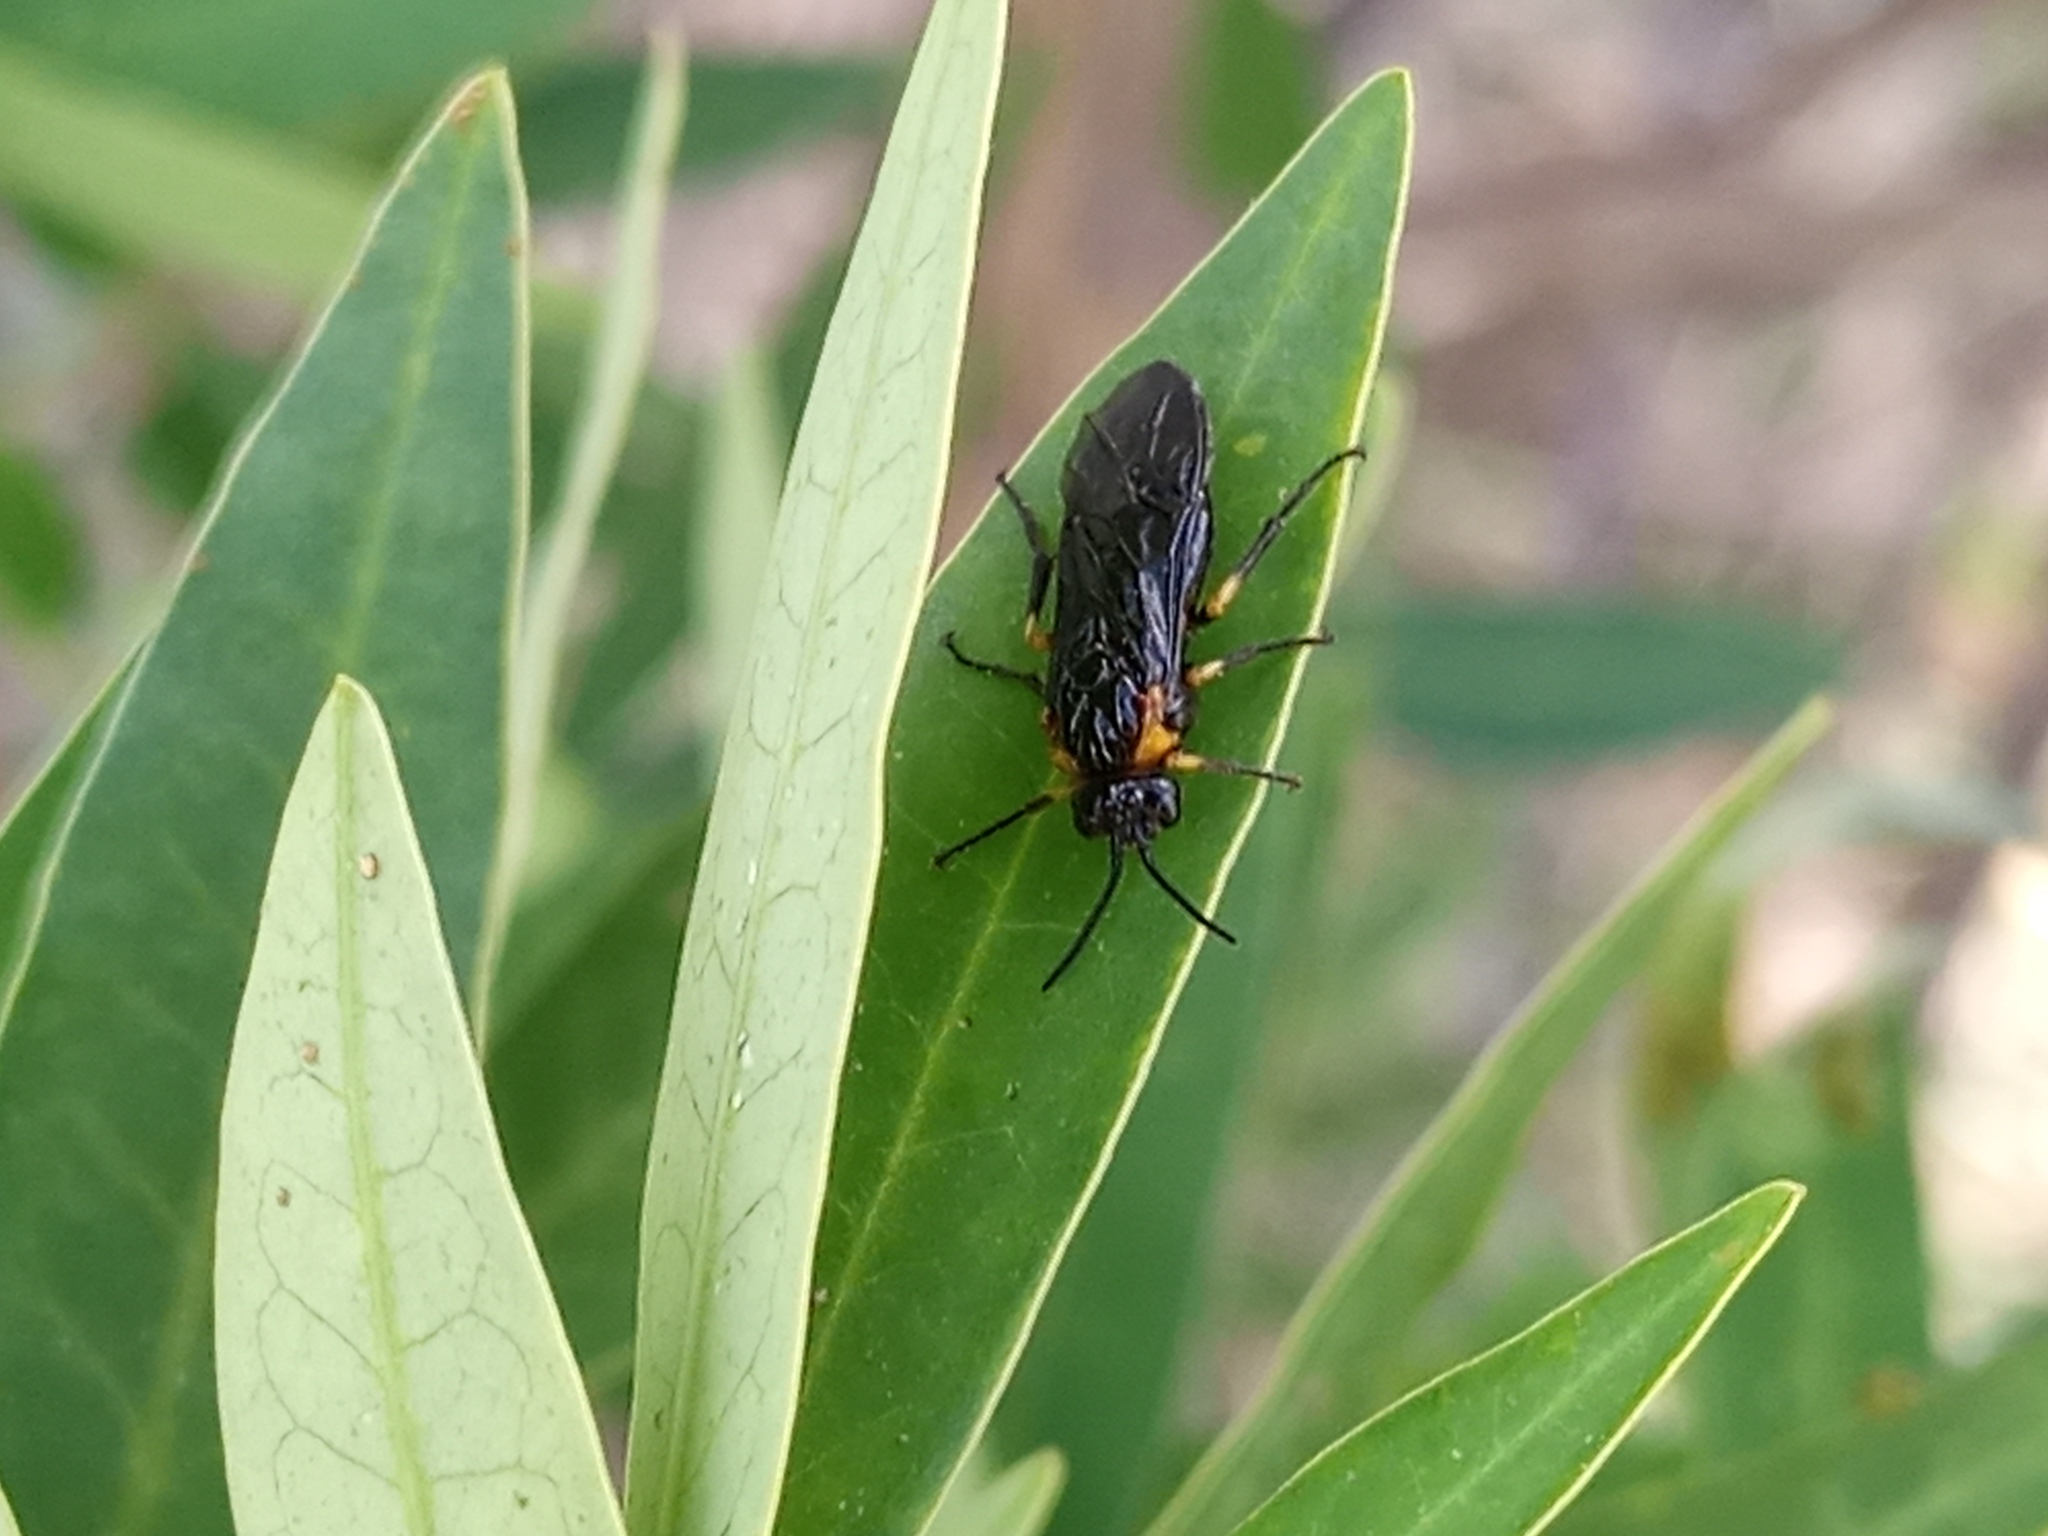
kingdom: Animalia
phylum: Arthropoda
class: Insecta
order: Hymenoptera
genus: Adurgoa
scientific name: Adurgoa
